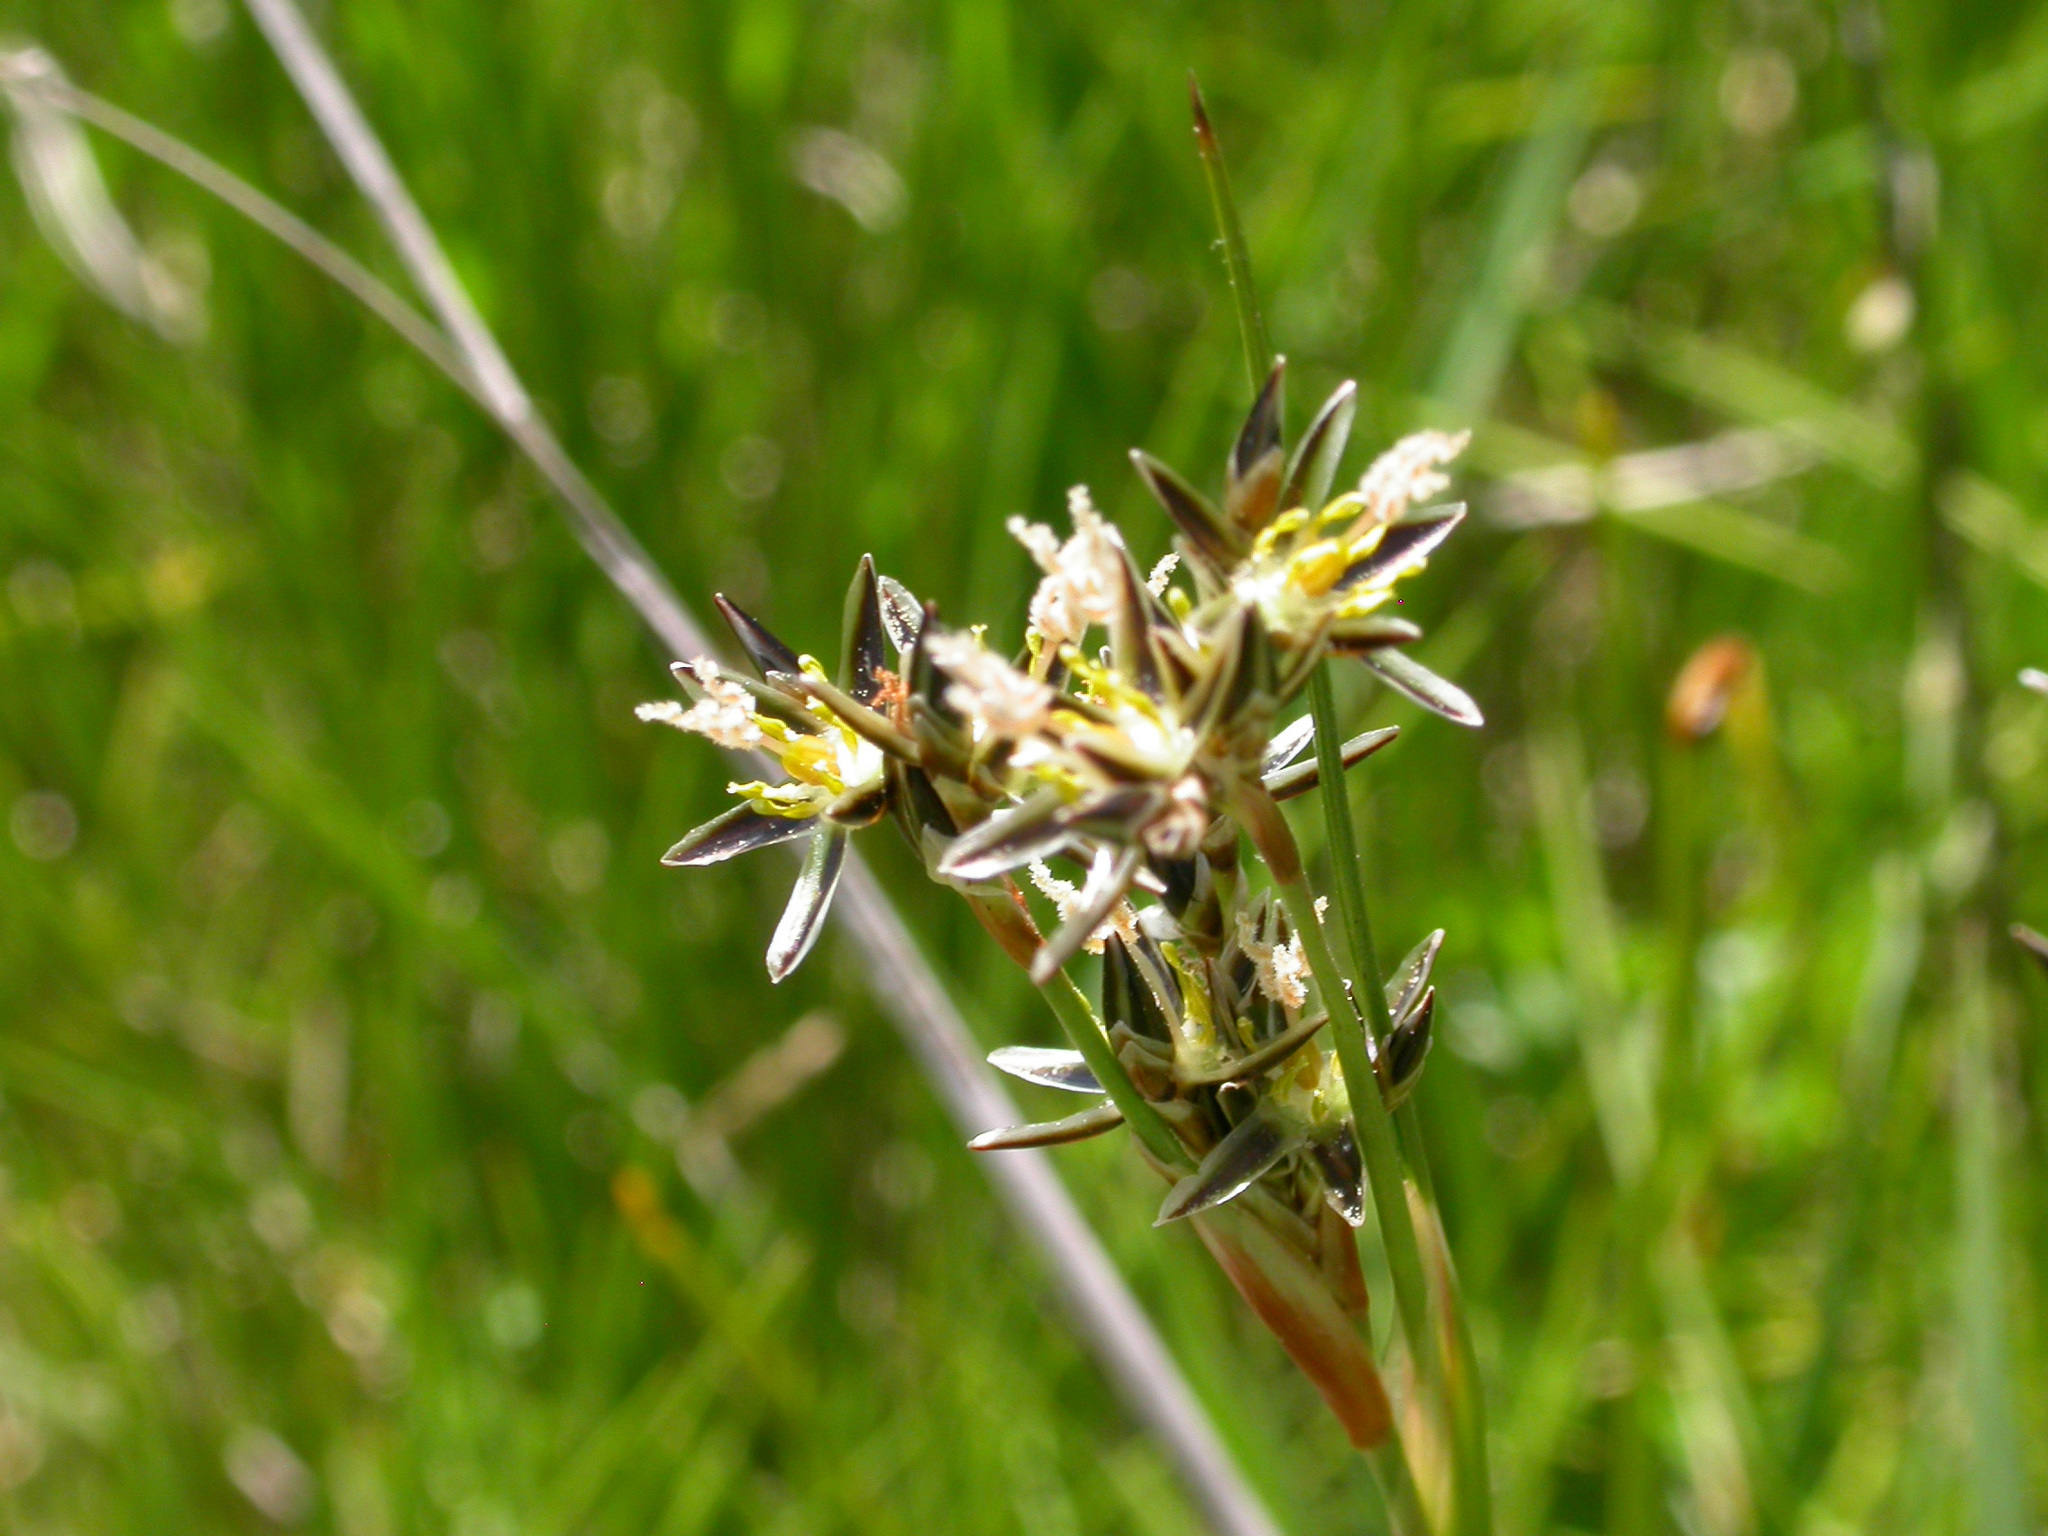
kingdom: Plantae
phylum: Tracheophyta
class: Liliopsida
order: Poales
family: Juncaceae
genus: Juncus
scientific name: Juncus squarrosus
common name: Heath rush
